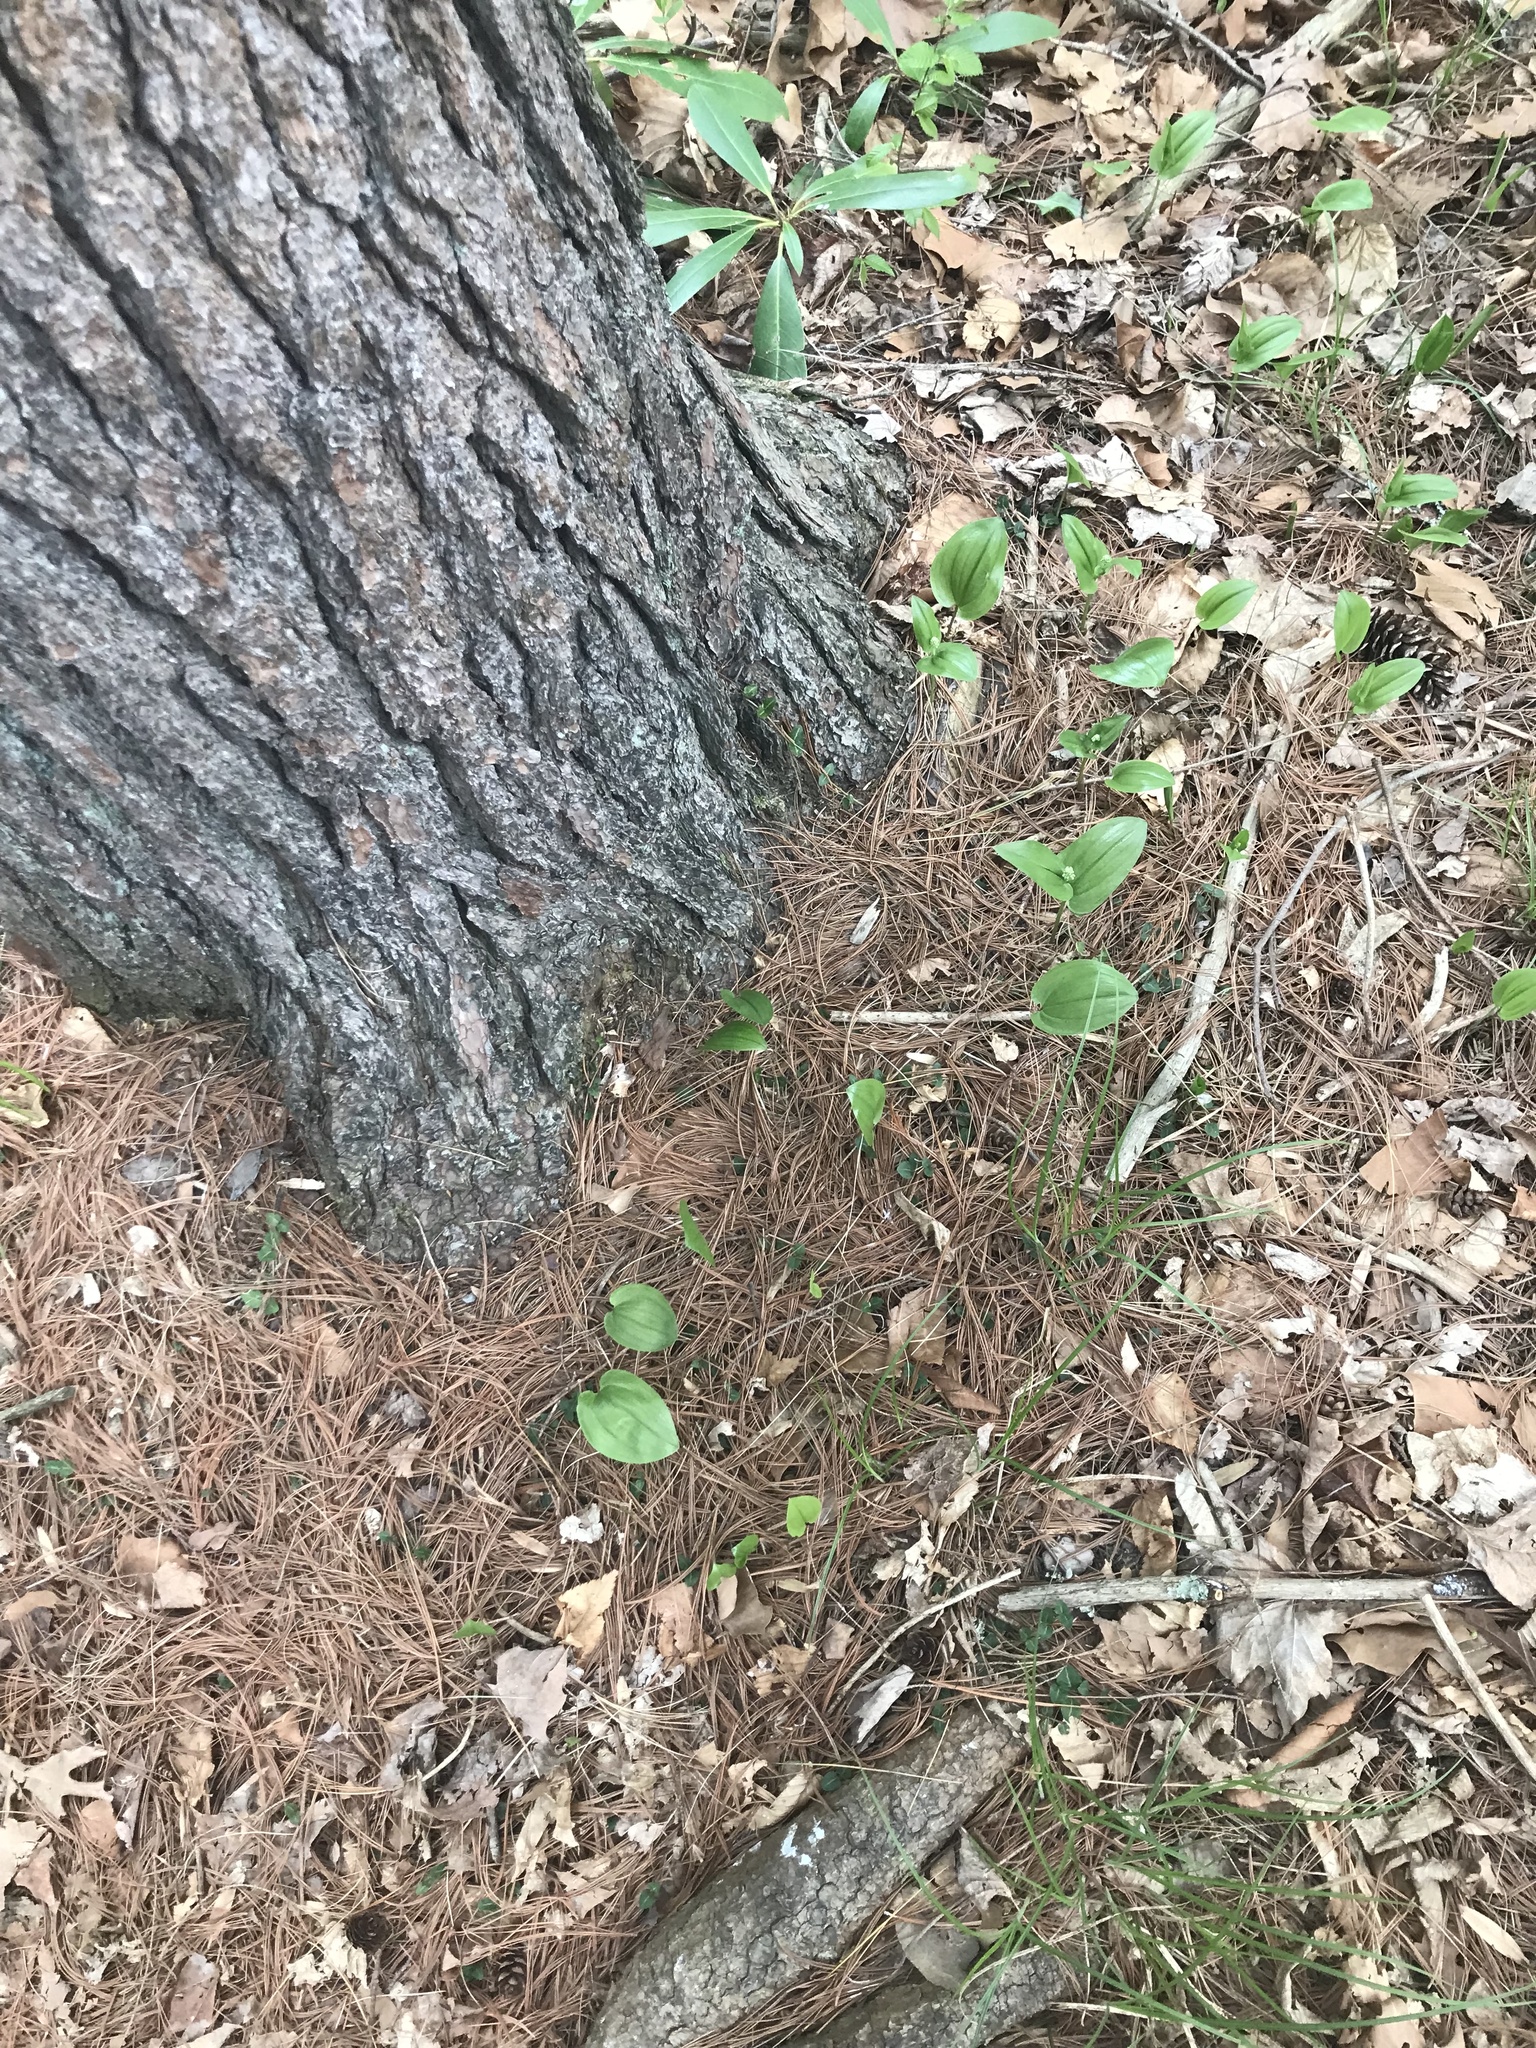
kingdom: Plantae
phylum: Tracheophyta
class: Liliopsida
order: Asparagales
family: Asparagaceae
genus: Maianthemum
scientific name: Maianthemum canadense
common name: False lily-of-the-valley
